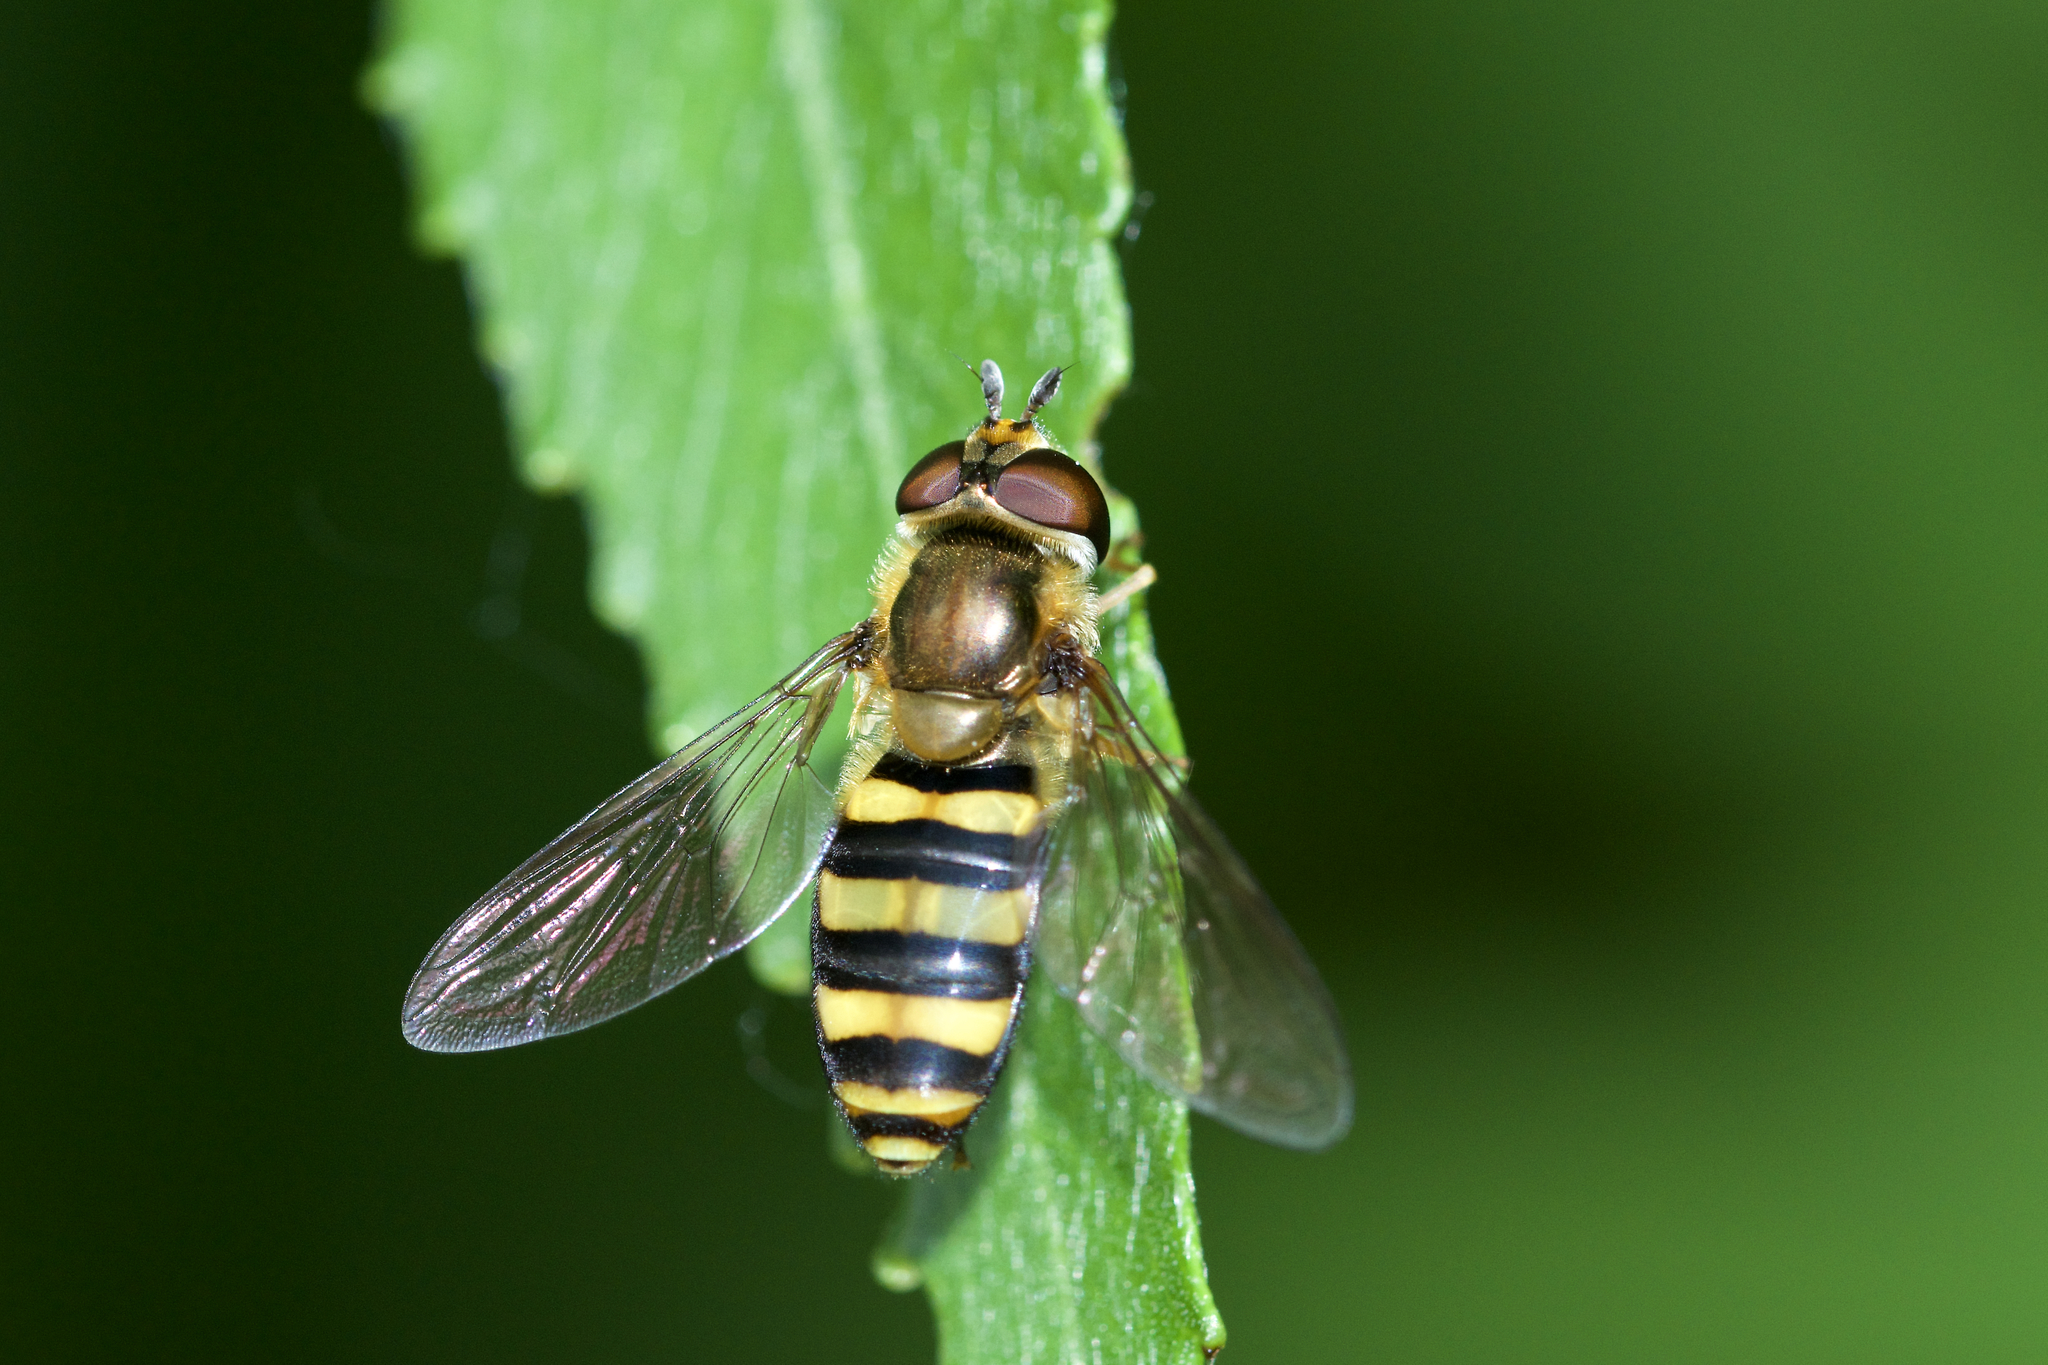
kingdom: Animalia
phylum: Arthropoda
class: Insecta
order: Diptera
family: Syrphidae
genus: Eupeodes
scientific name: Eupeodes
